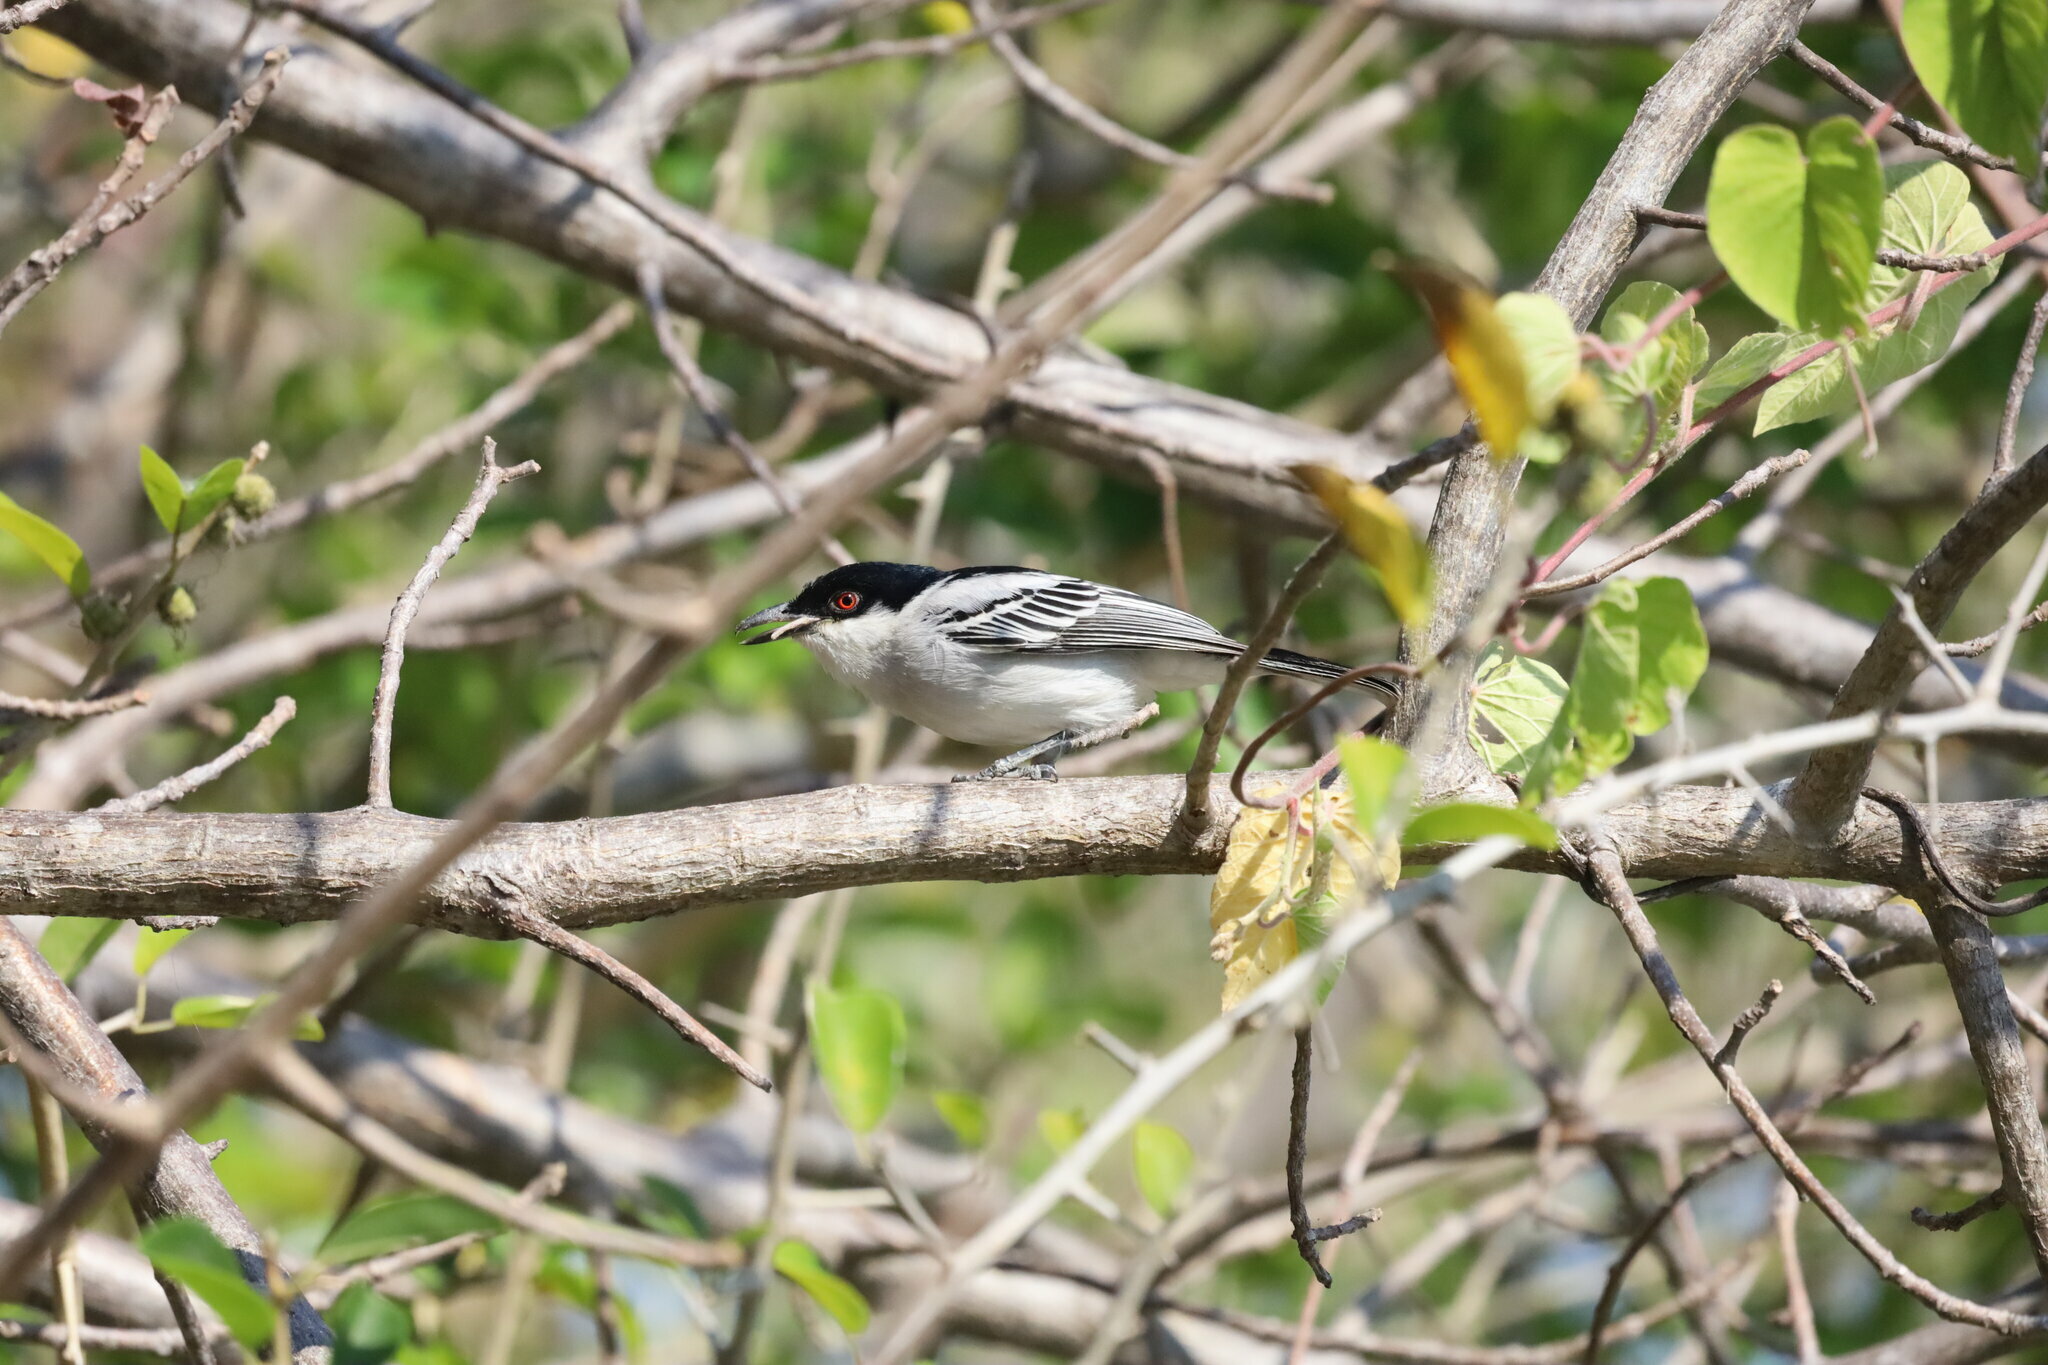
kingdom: Animalia
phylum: Chordata
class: Aves
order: Passeriformes
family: Malaconotidae
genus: Dryoscopus
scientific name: Dryoscopus cubla
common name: Black-backed puffback
